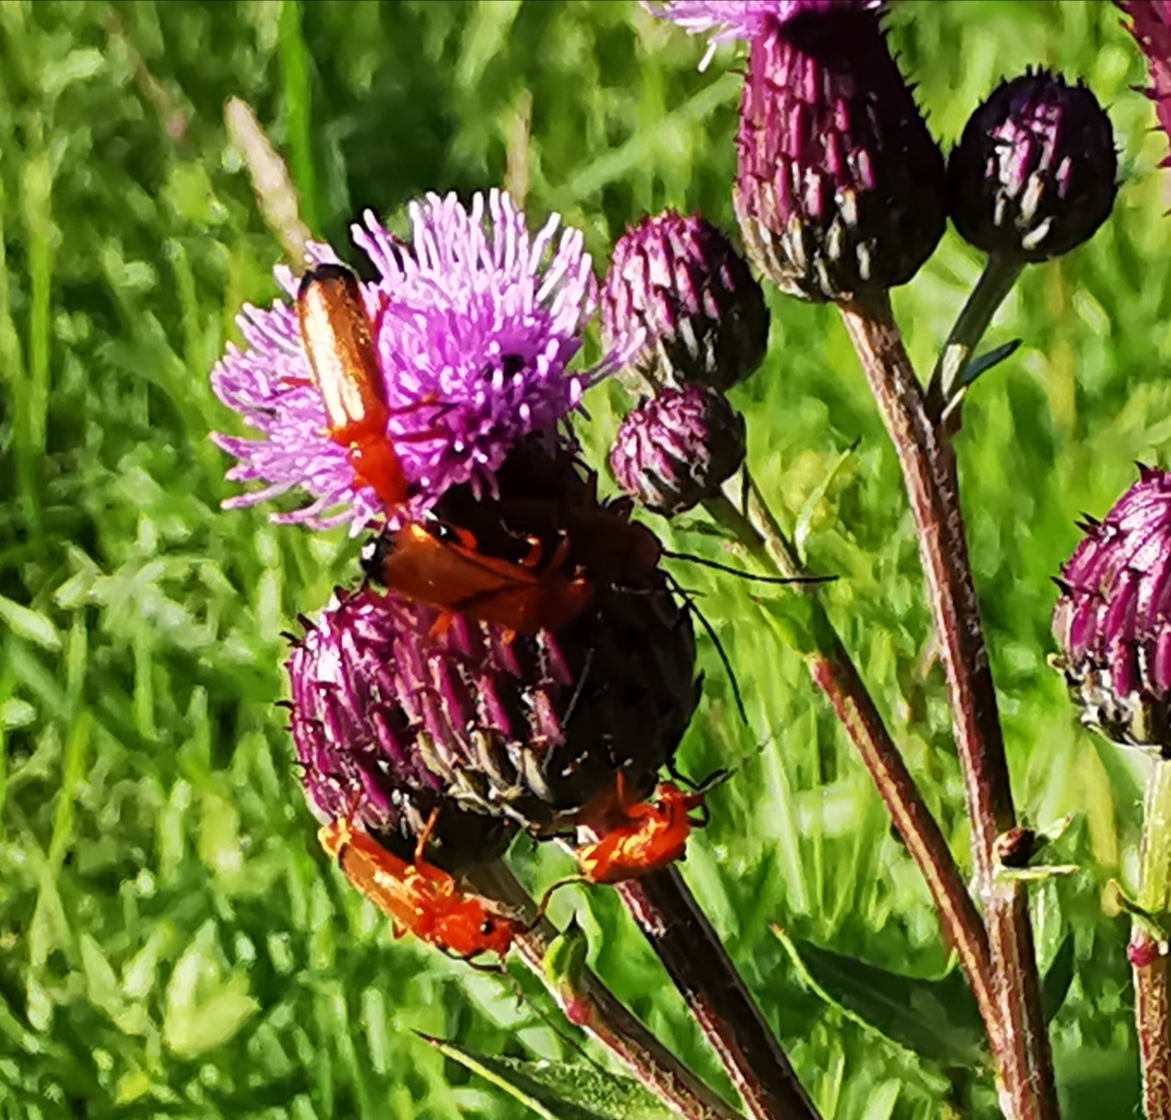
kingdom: Animalia
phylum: Arthropoda
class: Insecta
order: Coleoptera
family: Cantharidae
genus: Rhagonycha
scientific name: Rhagonycha fulva
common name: Common red soldier beetle
